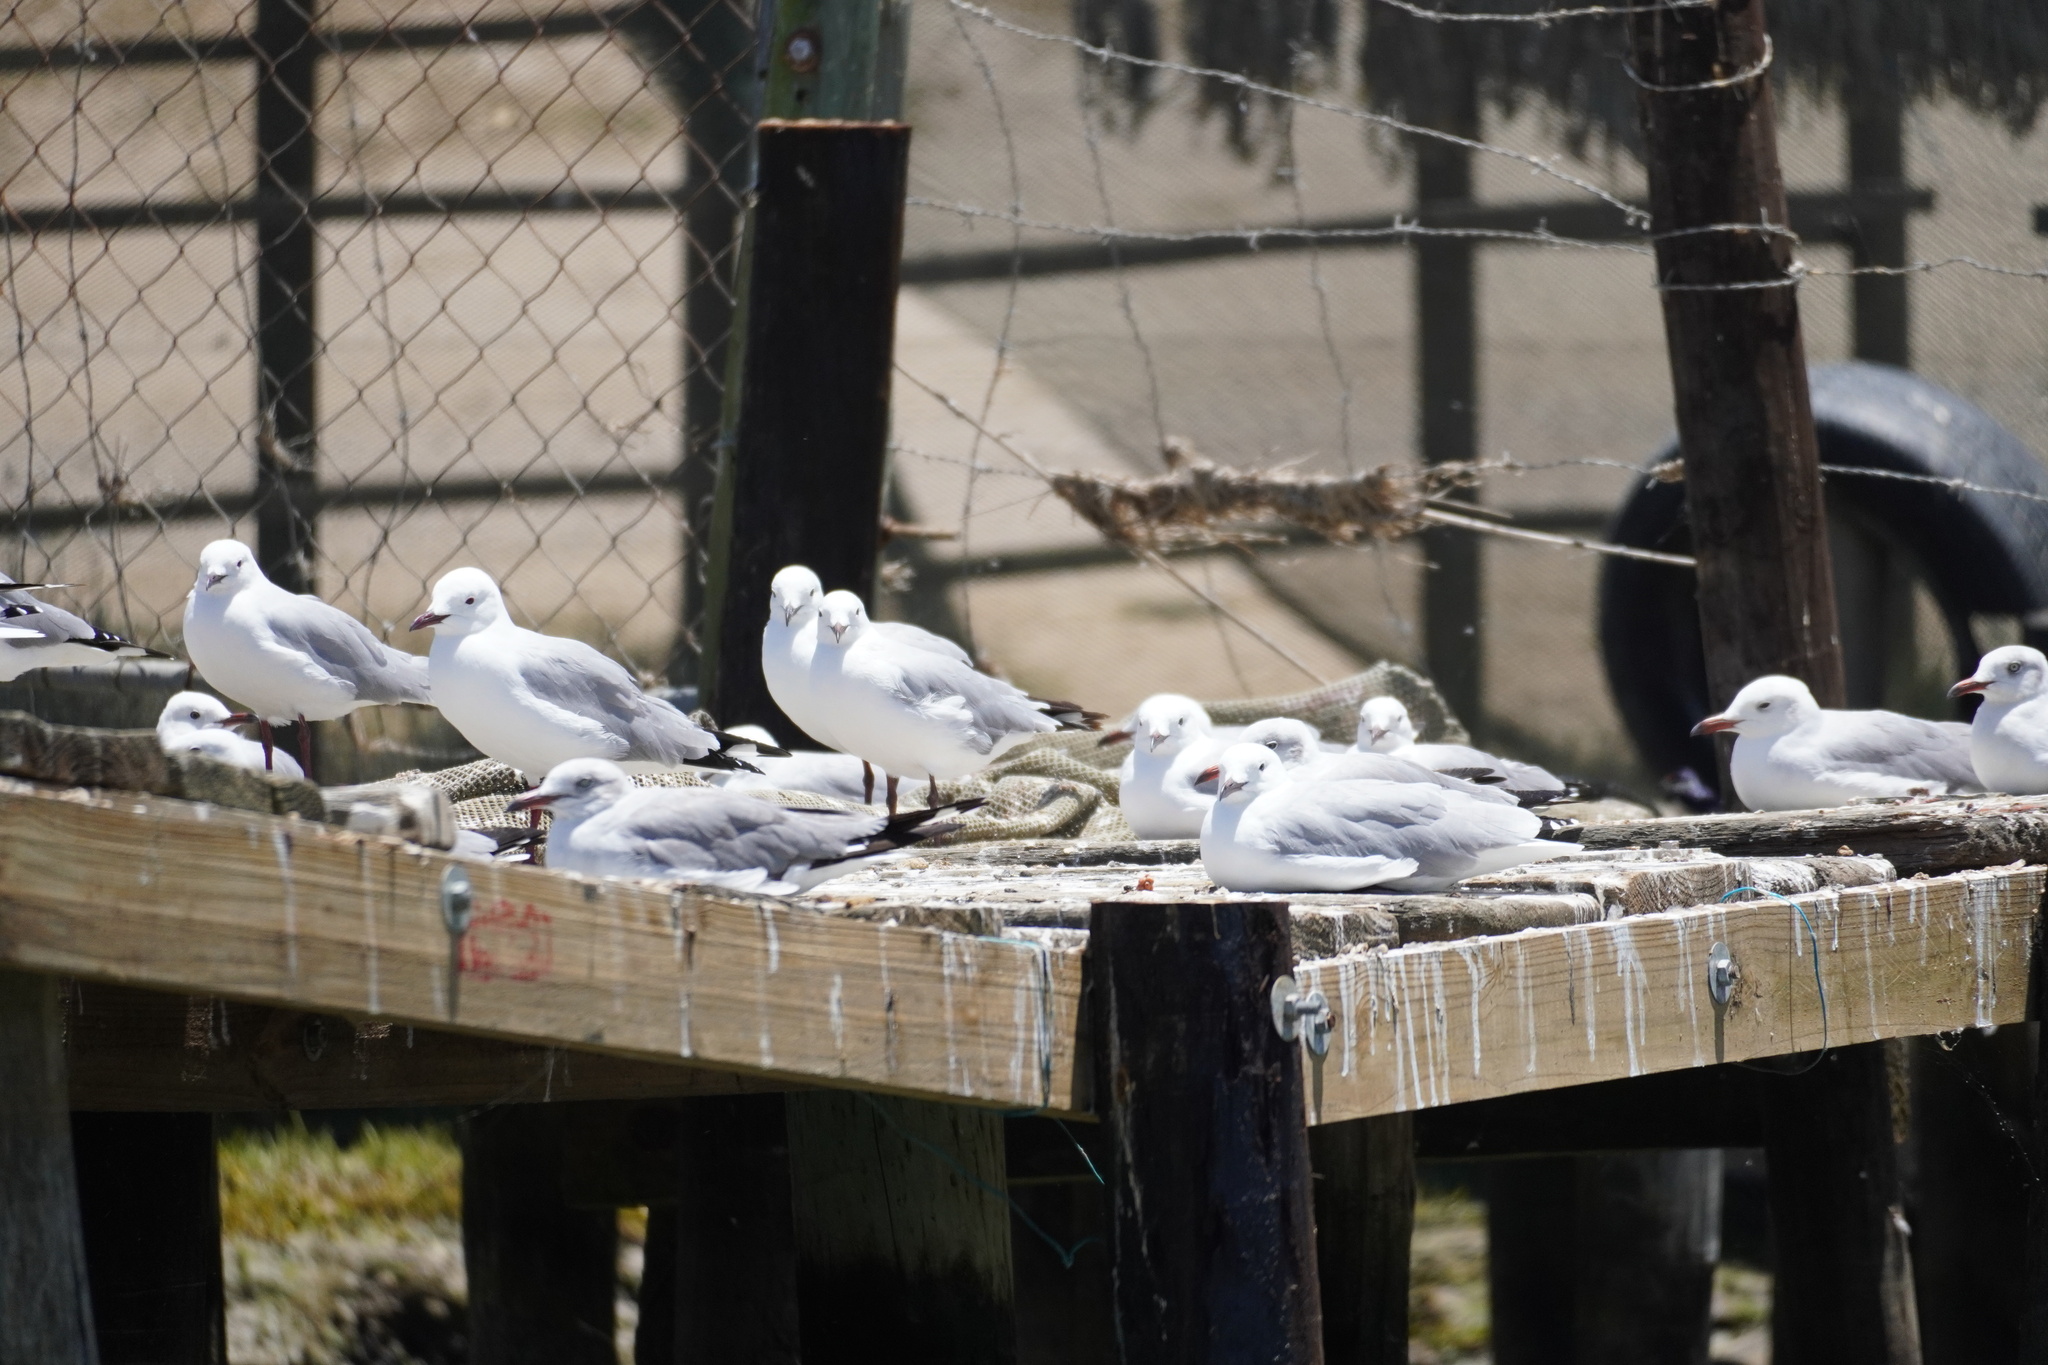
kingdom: Animalia
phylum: Chordata
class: Aves
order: Charadriiformes
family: Laridae
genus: Chroicocephalus
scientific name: Chroicocephalus hartlaubii
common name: Hartlaub's gull
